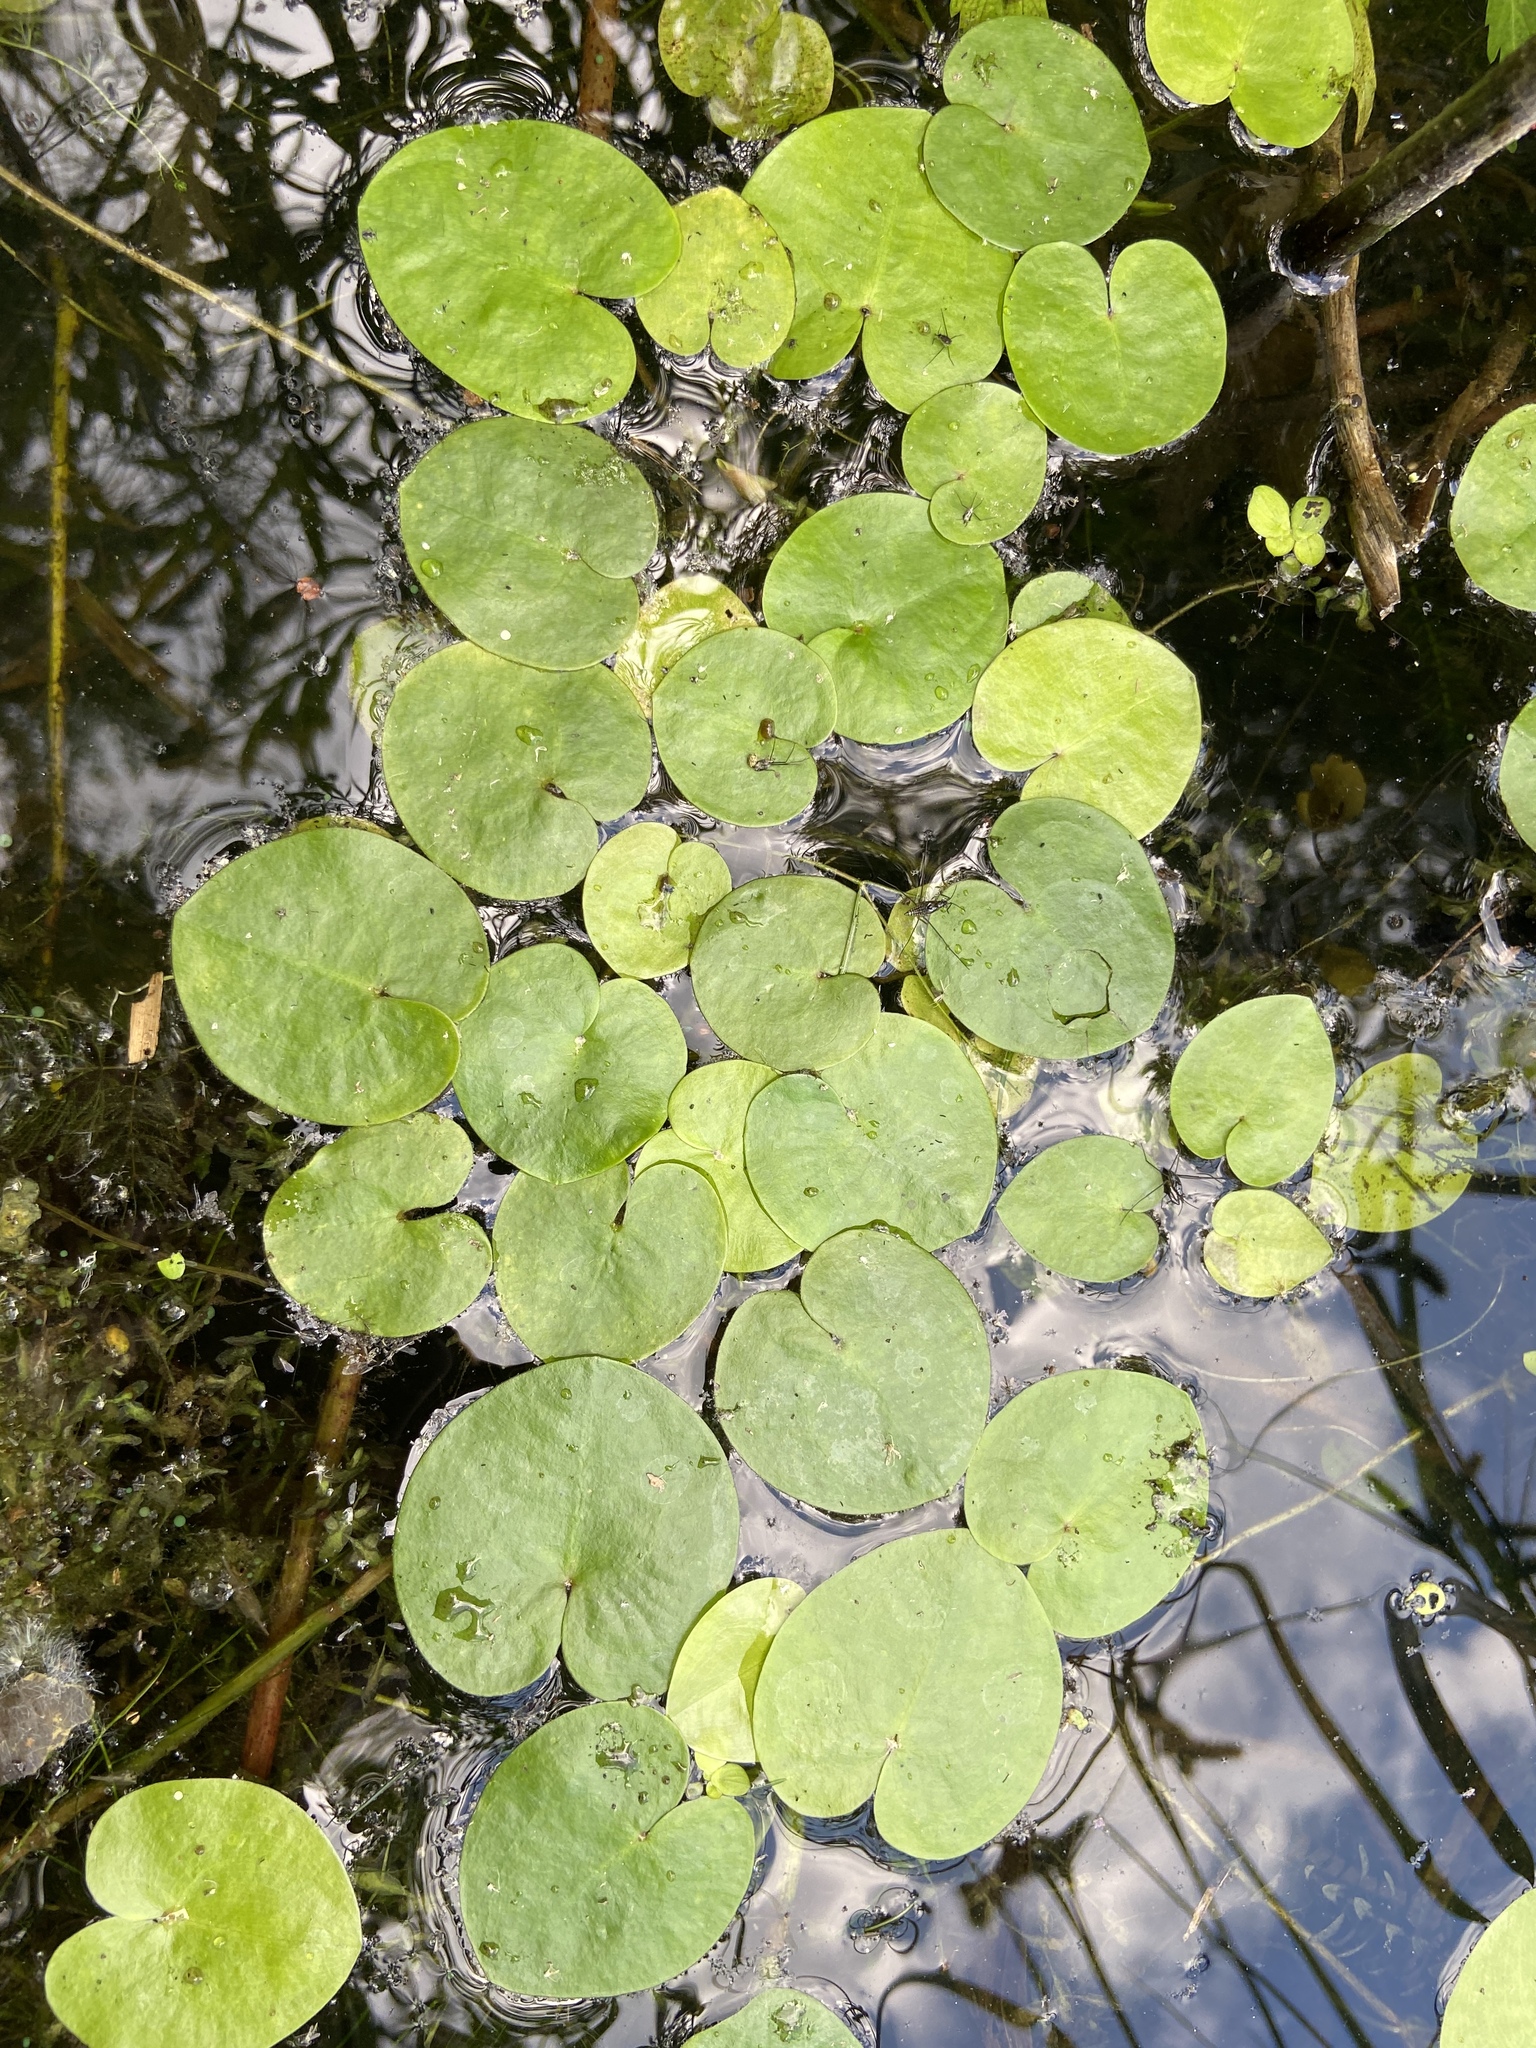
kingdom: Plantae
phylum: Tracheophyta
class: Liliopsida
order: Alismatales
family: Hydrocharitaceae
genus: Hydrocharis
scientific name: Hydrocharis morsus-ranae
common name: Frogbit
